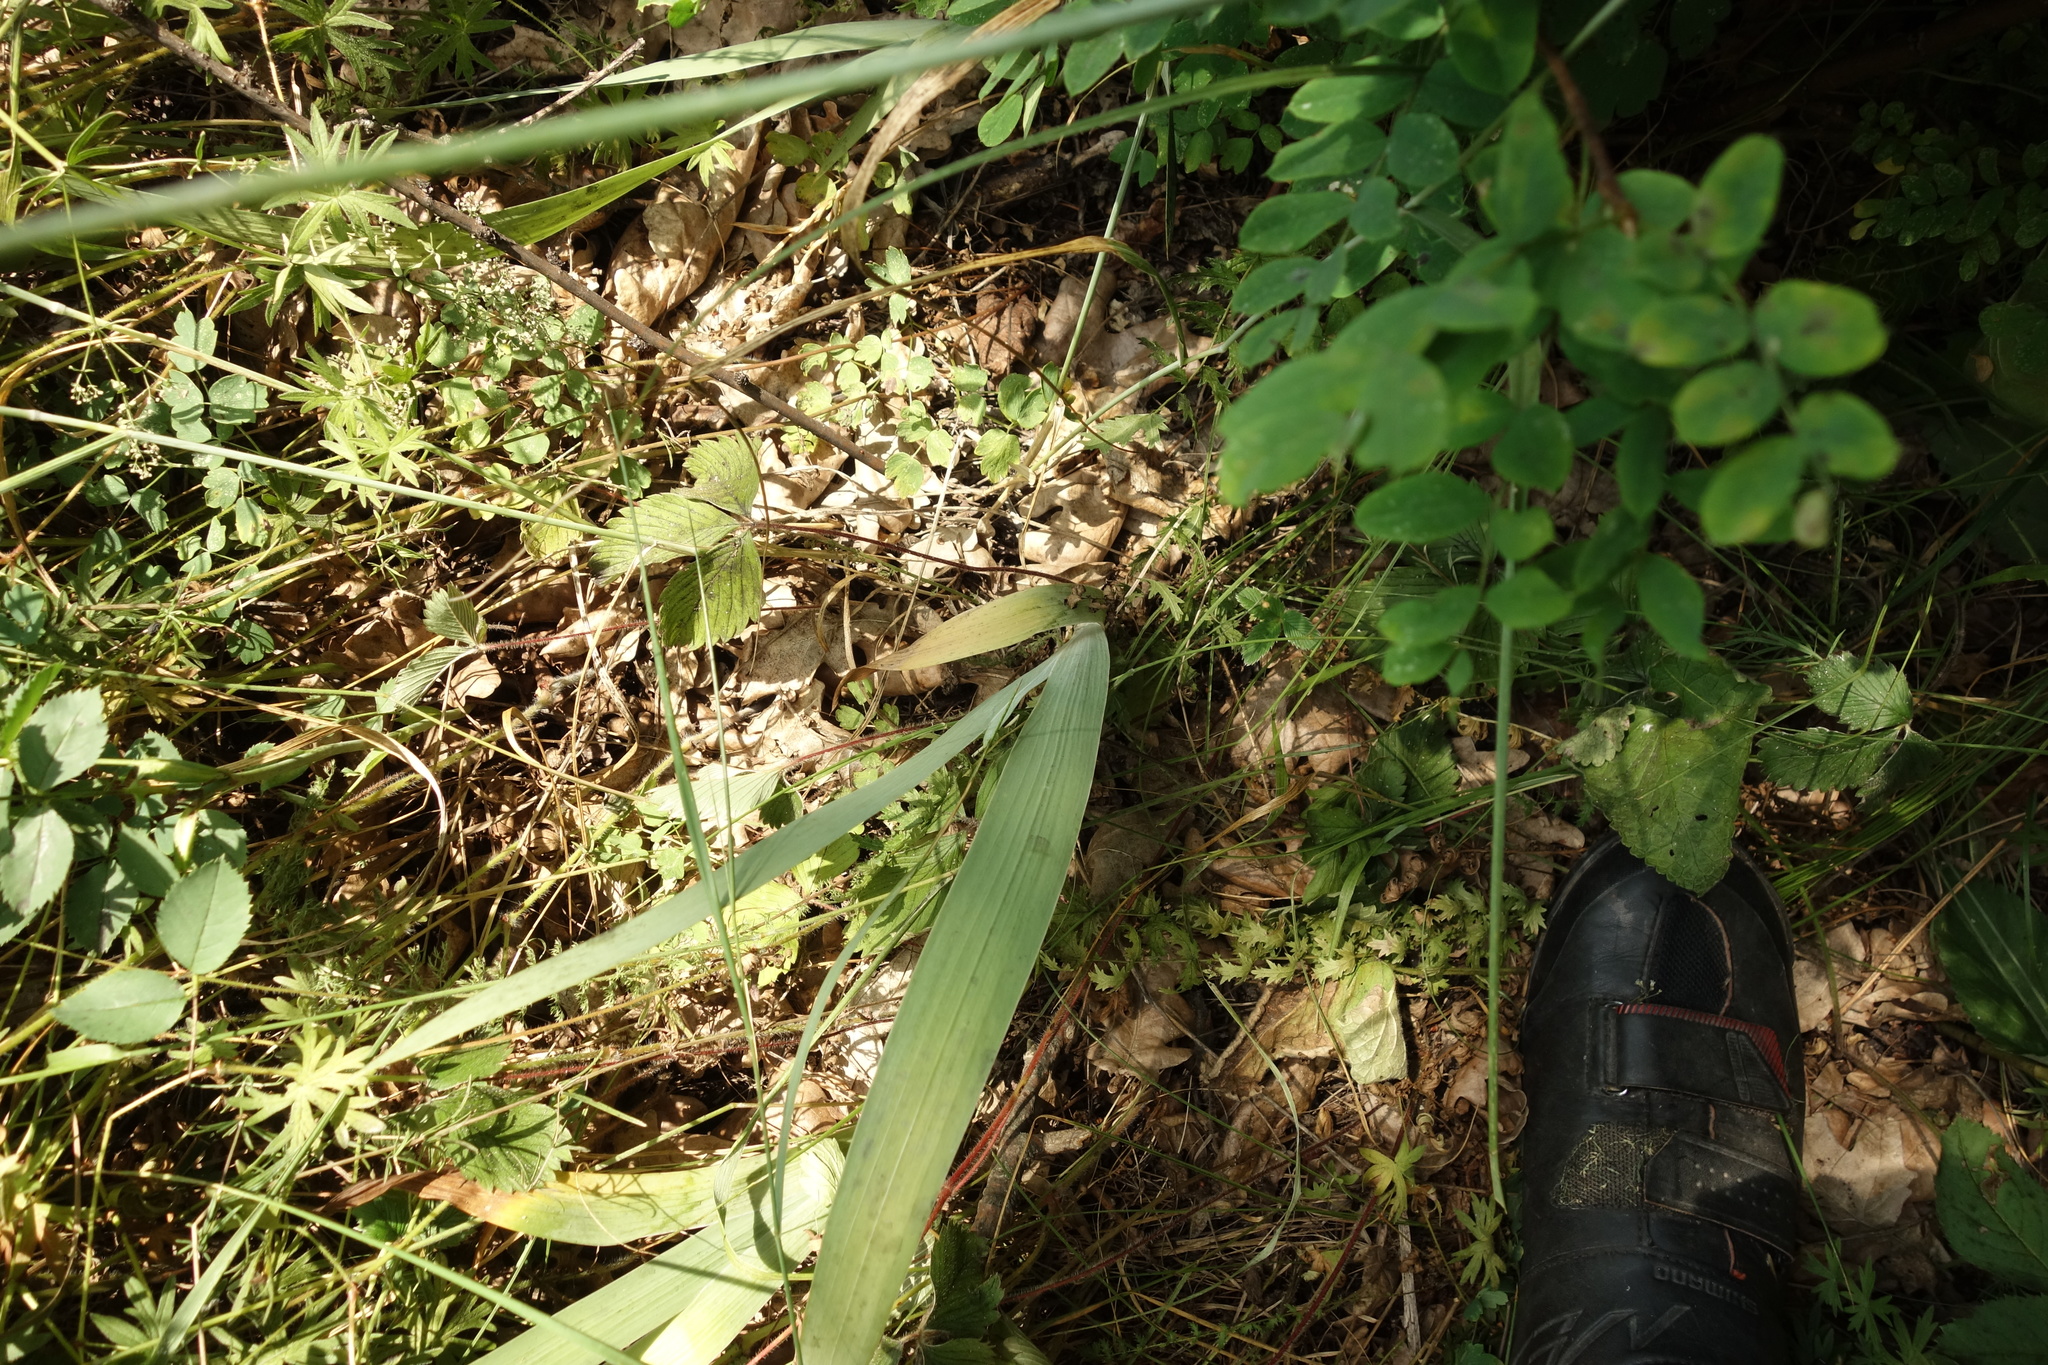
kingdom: Plantae
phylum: Tracheophyta
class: Liliopsida
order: Asparagales
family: Iridaceae
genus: Iris
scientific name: Iris aphylla
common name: Stool iris
